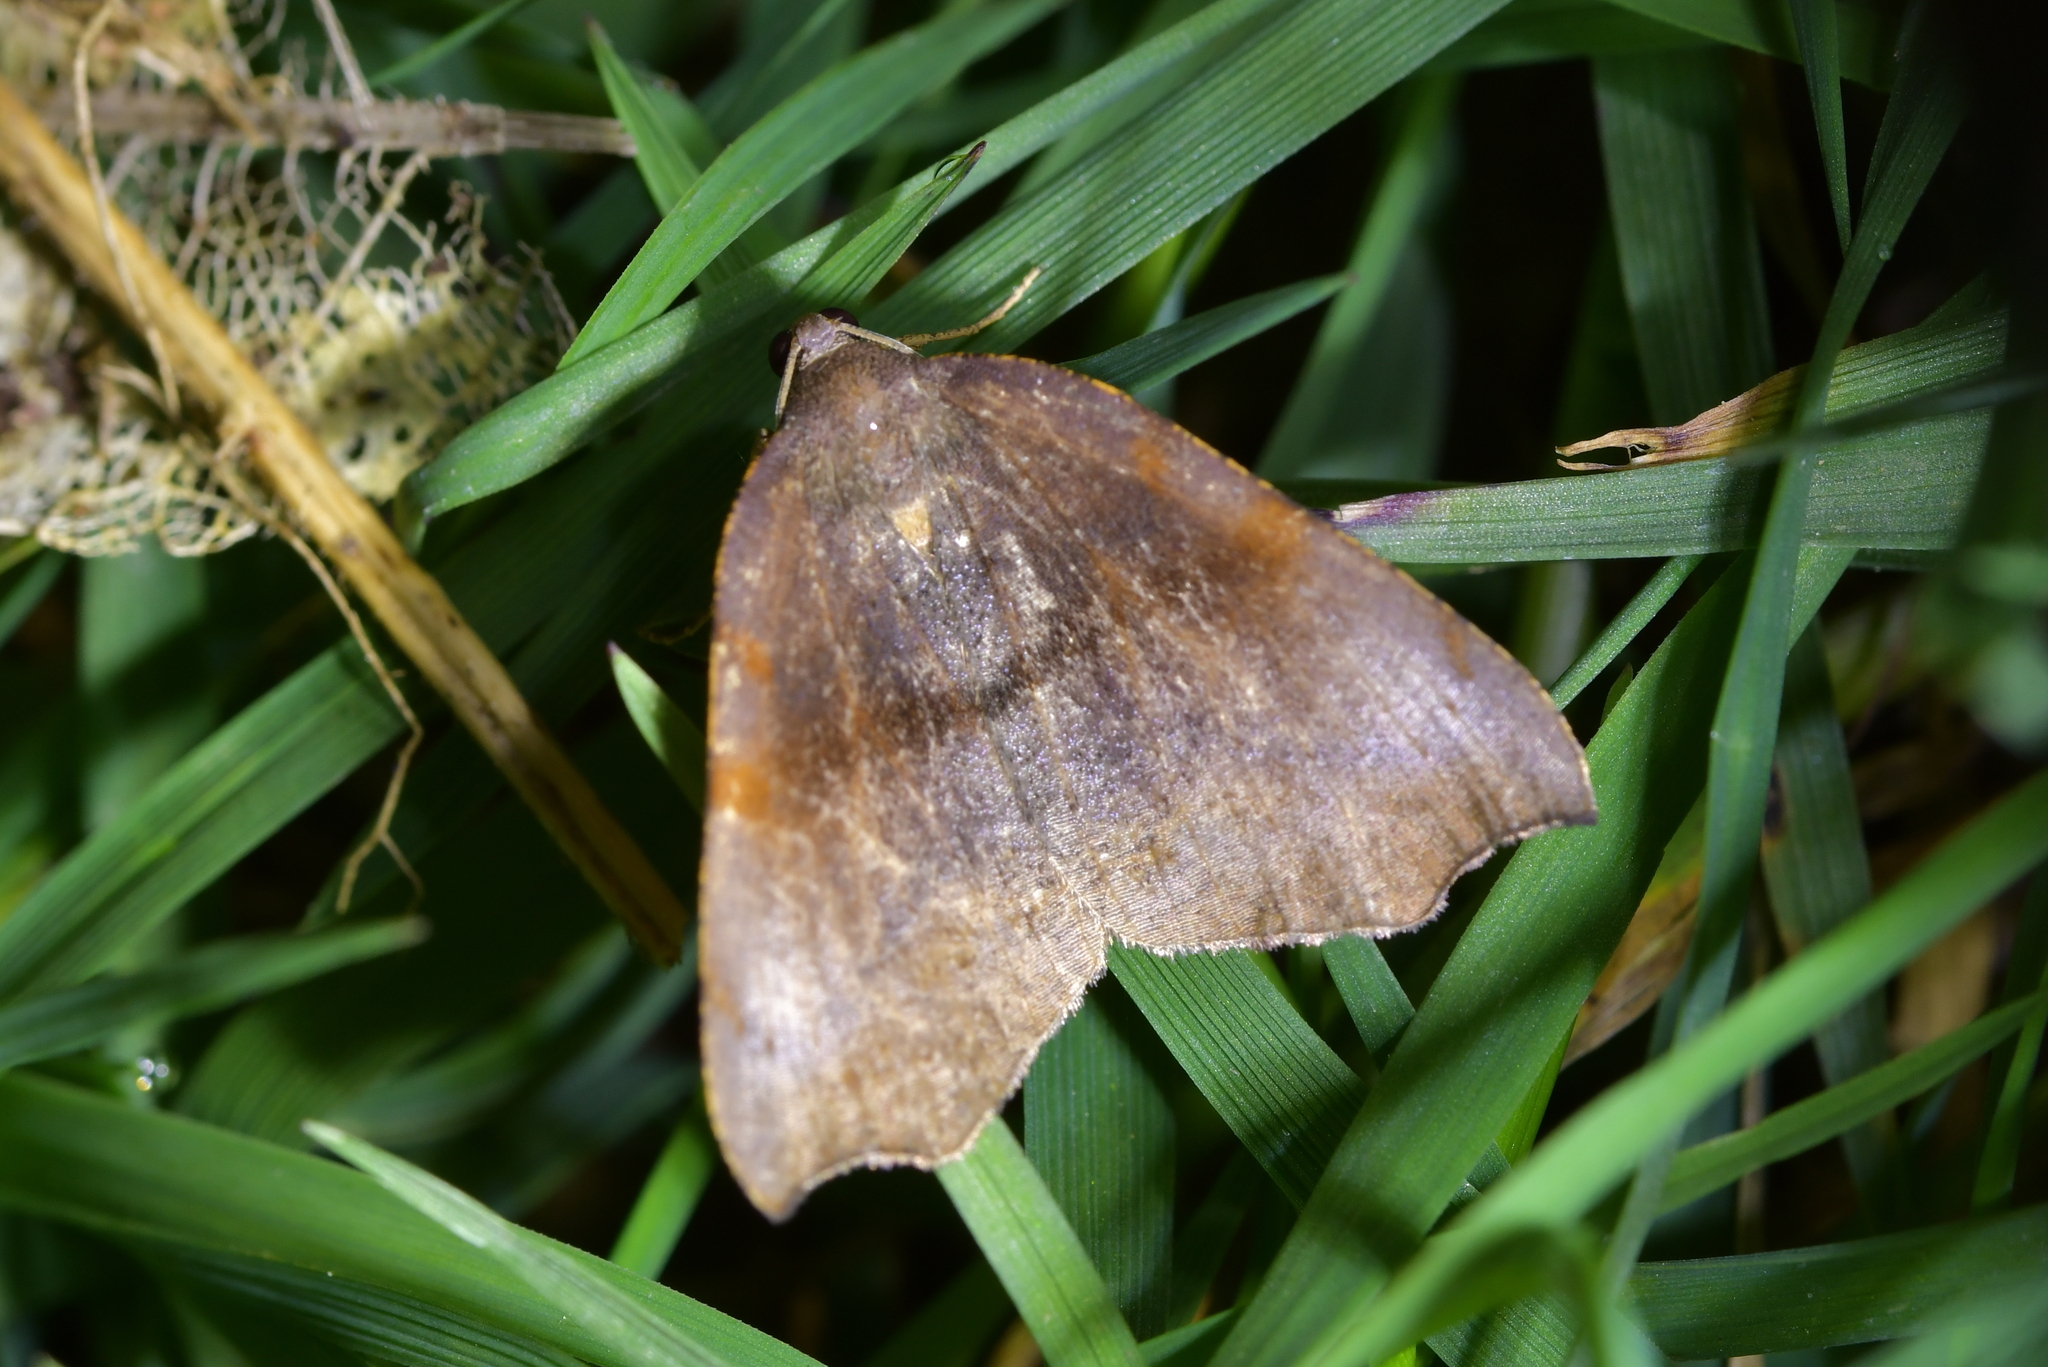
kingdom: Animalia
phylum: Arthropoda
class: Insecta
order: Lepidoptera
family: Geometridae
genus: Sestra
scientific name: Sestra flexata
